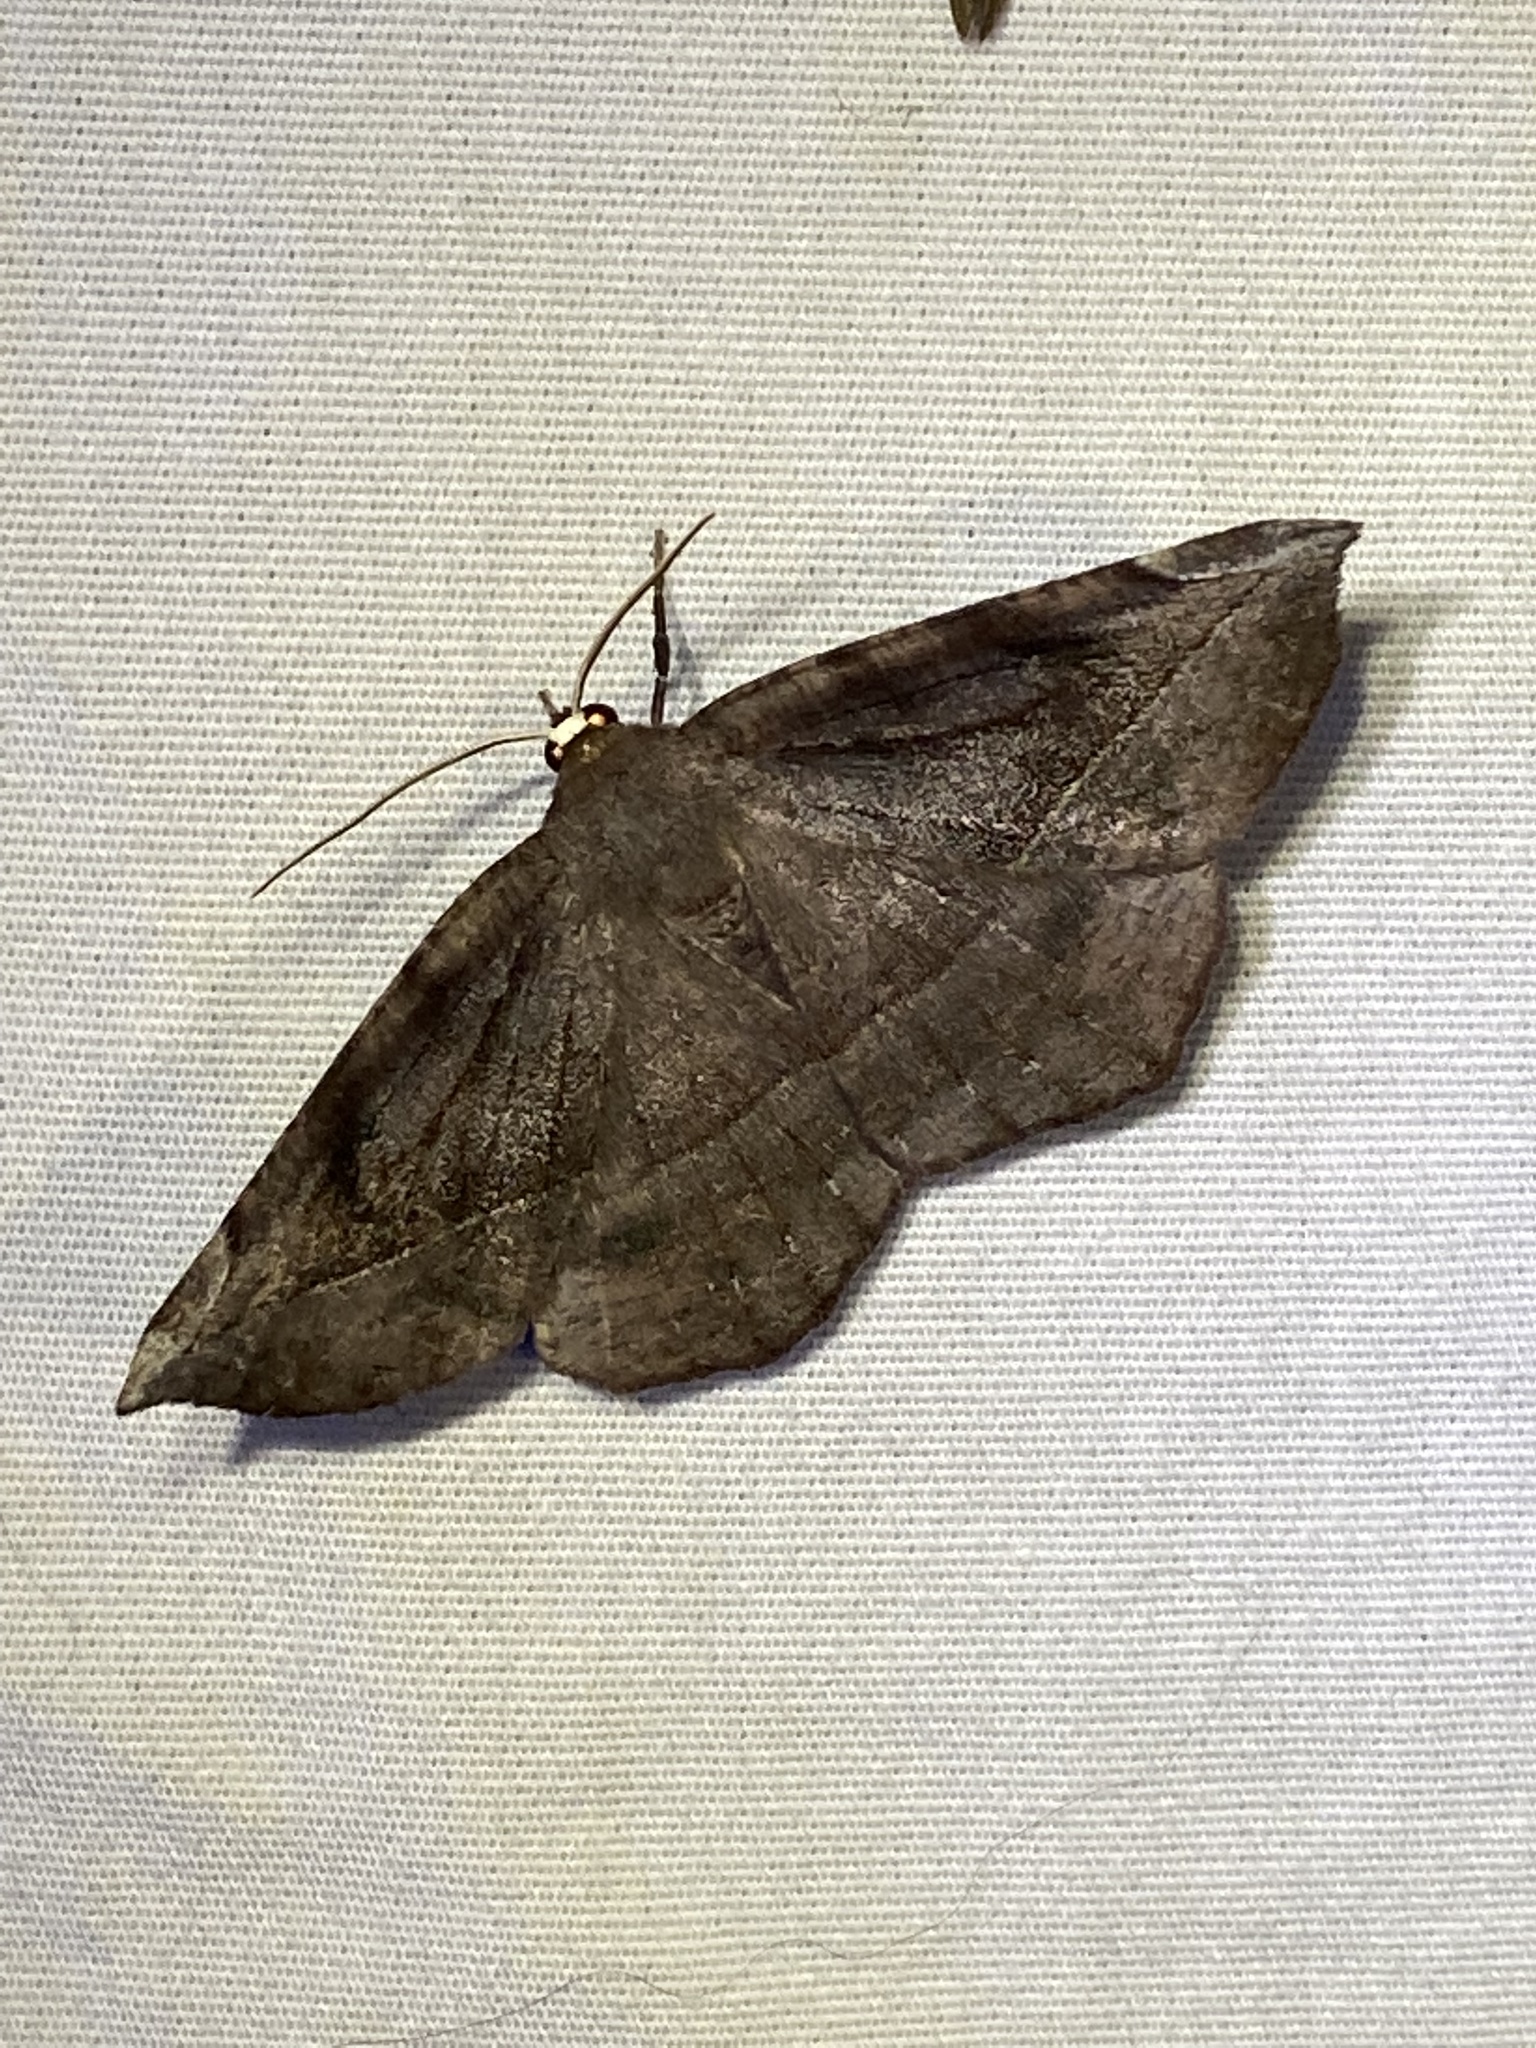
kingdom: Animalia
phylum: Arthropoda
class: Insecta
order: Lepidoptera
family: Geometridae
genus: Eutrapela
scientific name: Eutrapela clemataria
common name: Curved-toothed geometer
